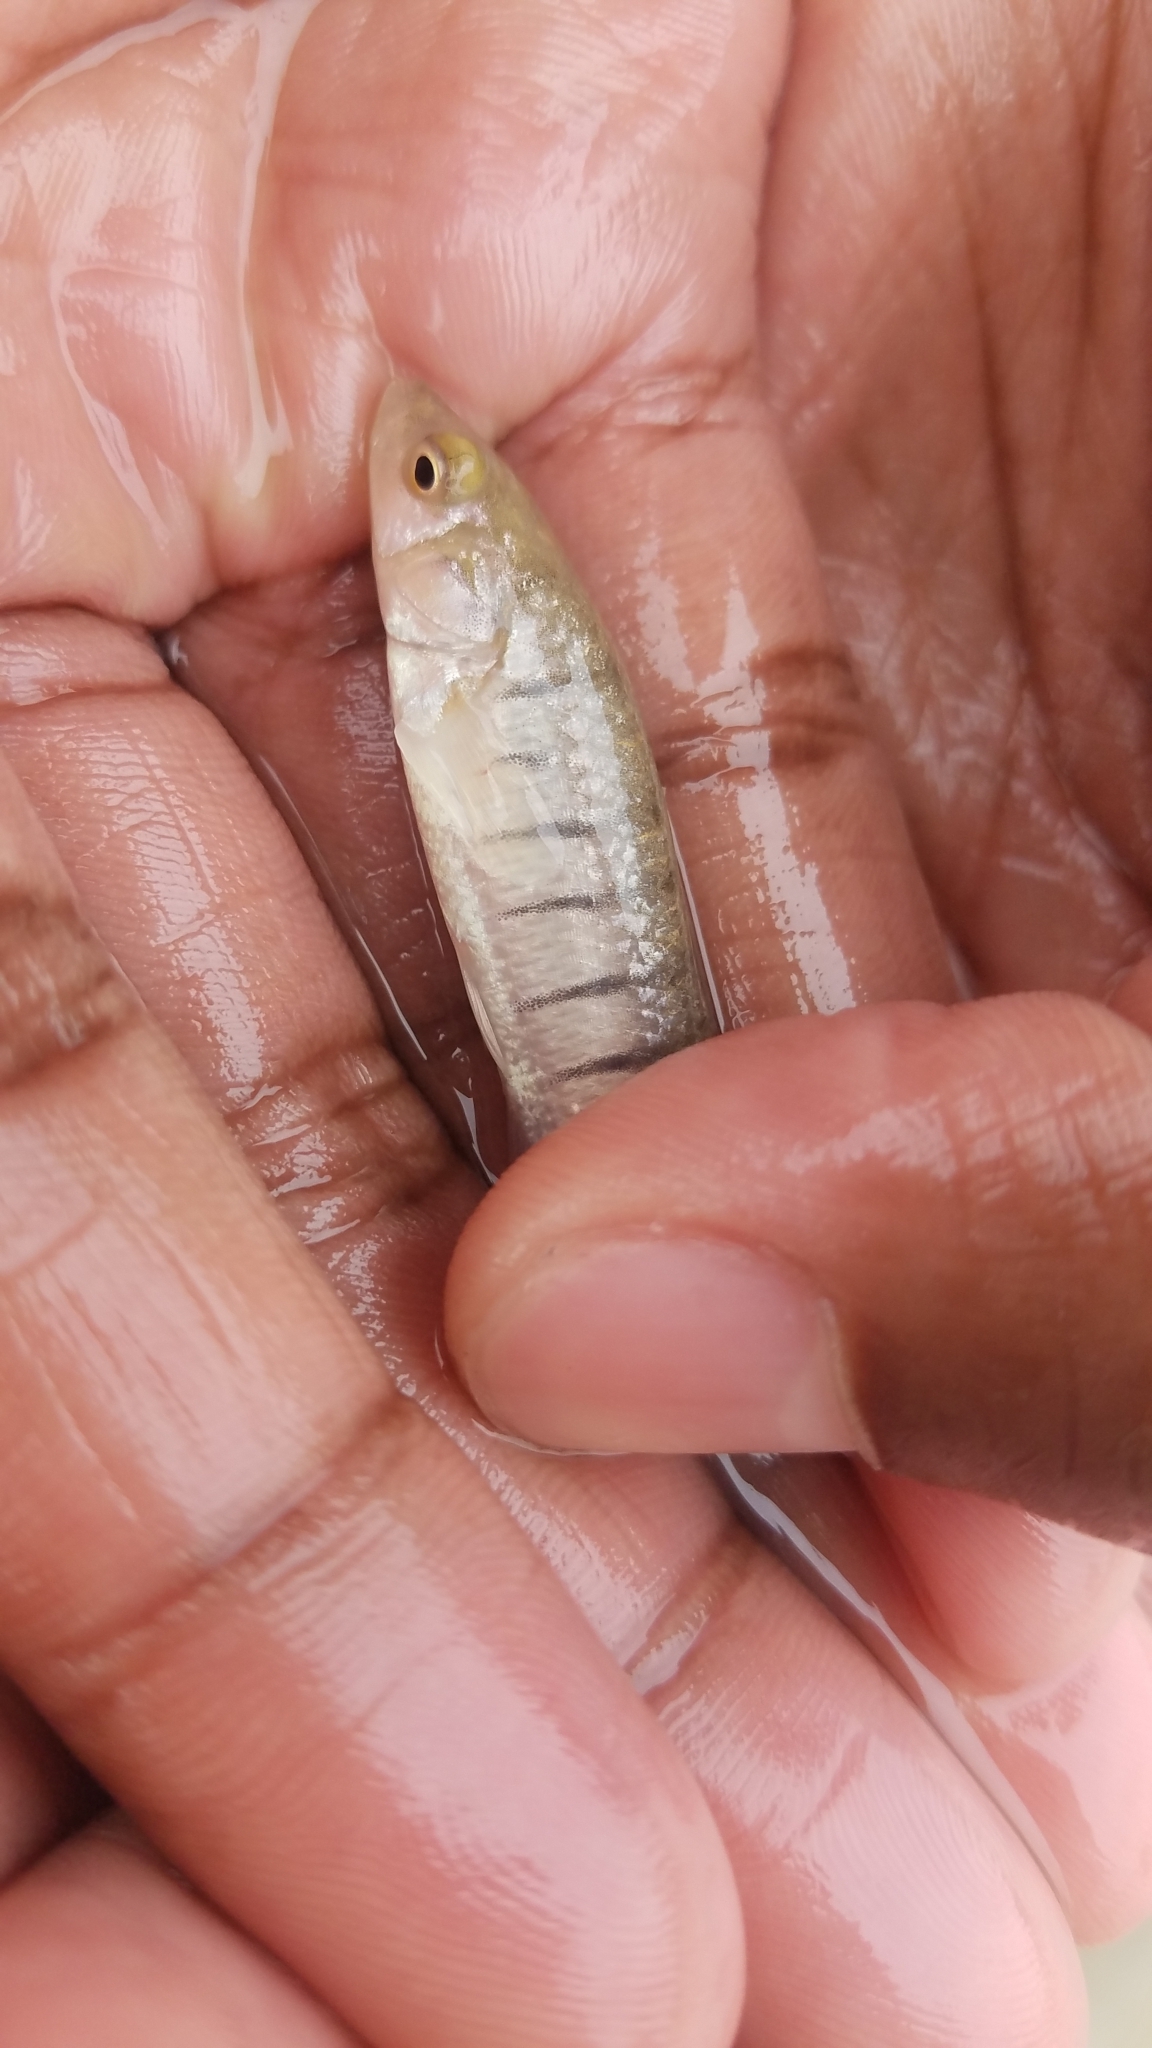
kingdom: Animalia
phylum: Chordata
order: Cyprinodontiformes
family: Fundulidae
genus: Fundulus
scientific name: Fundulus majalis
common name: Striped killifish
